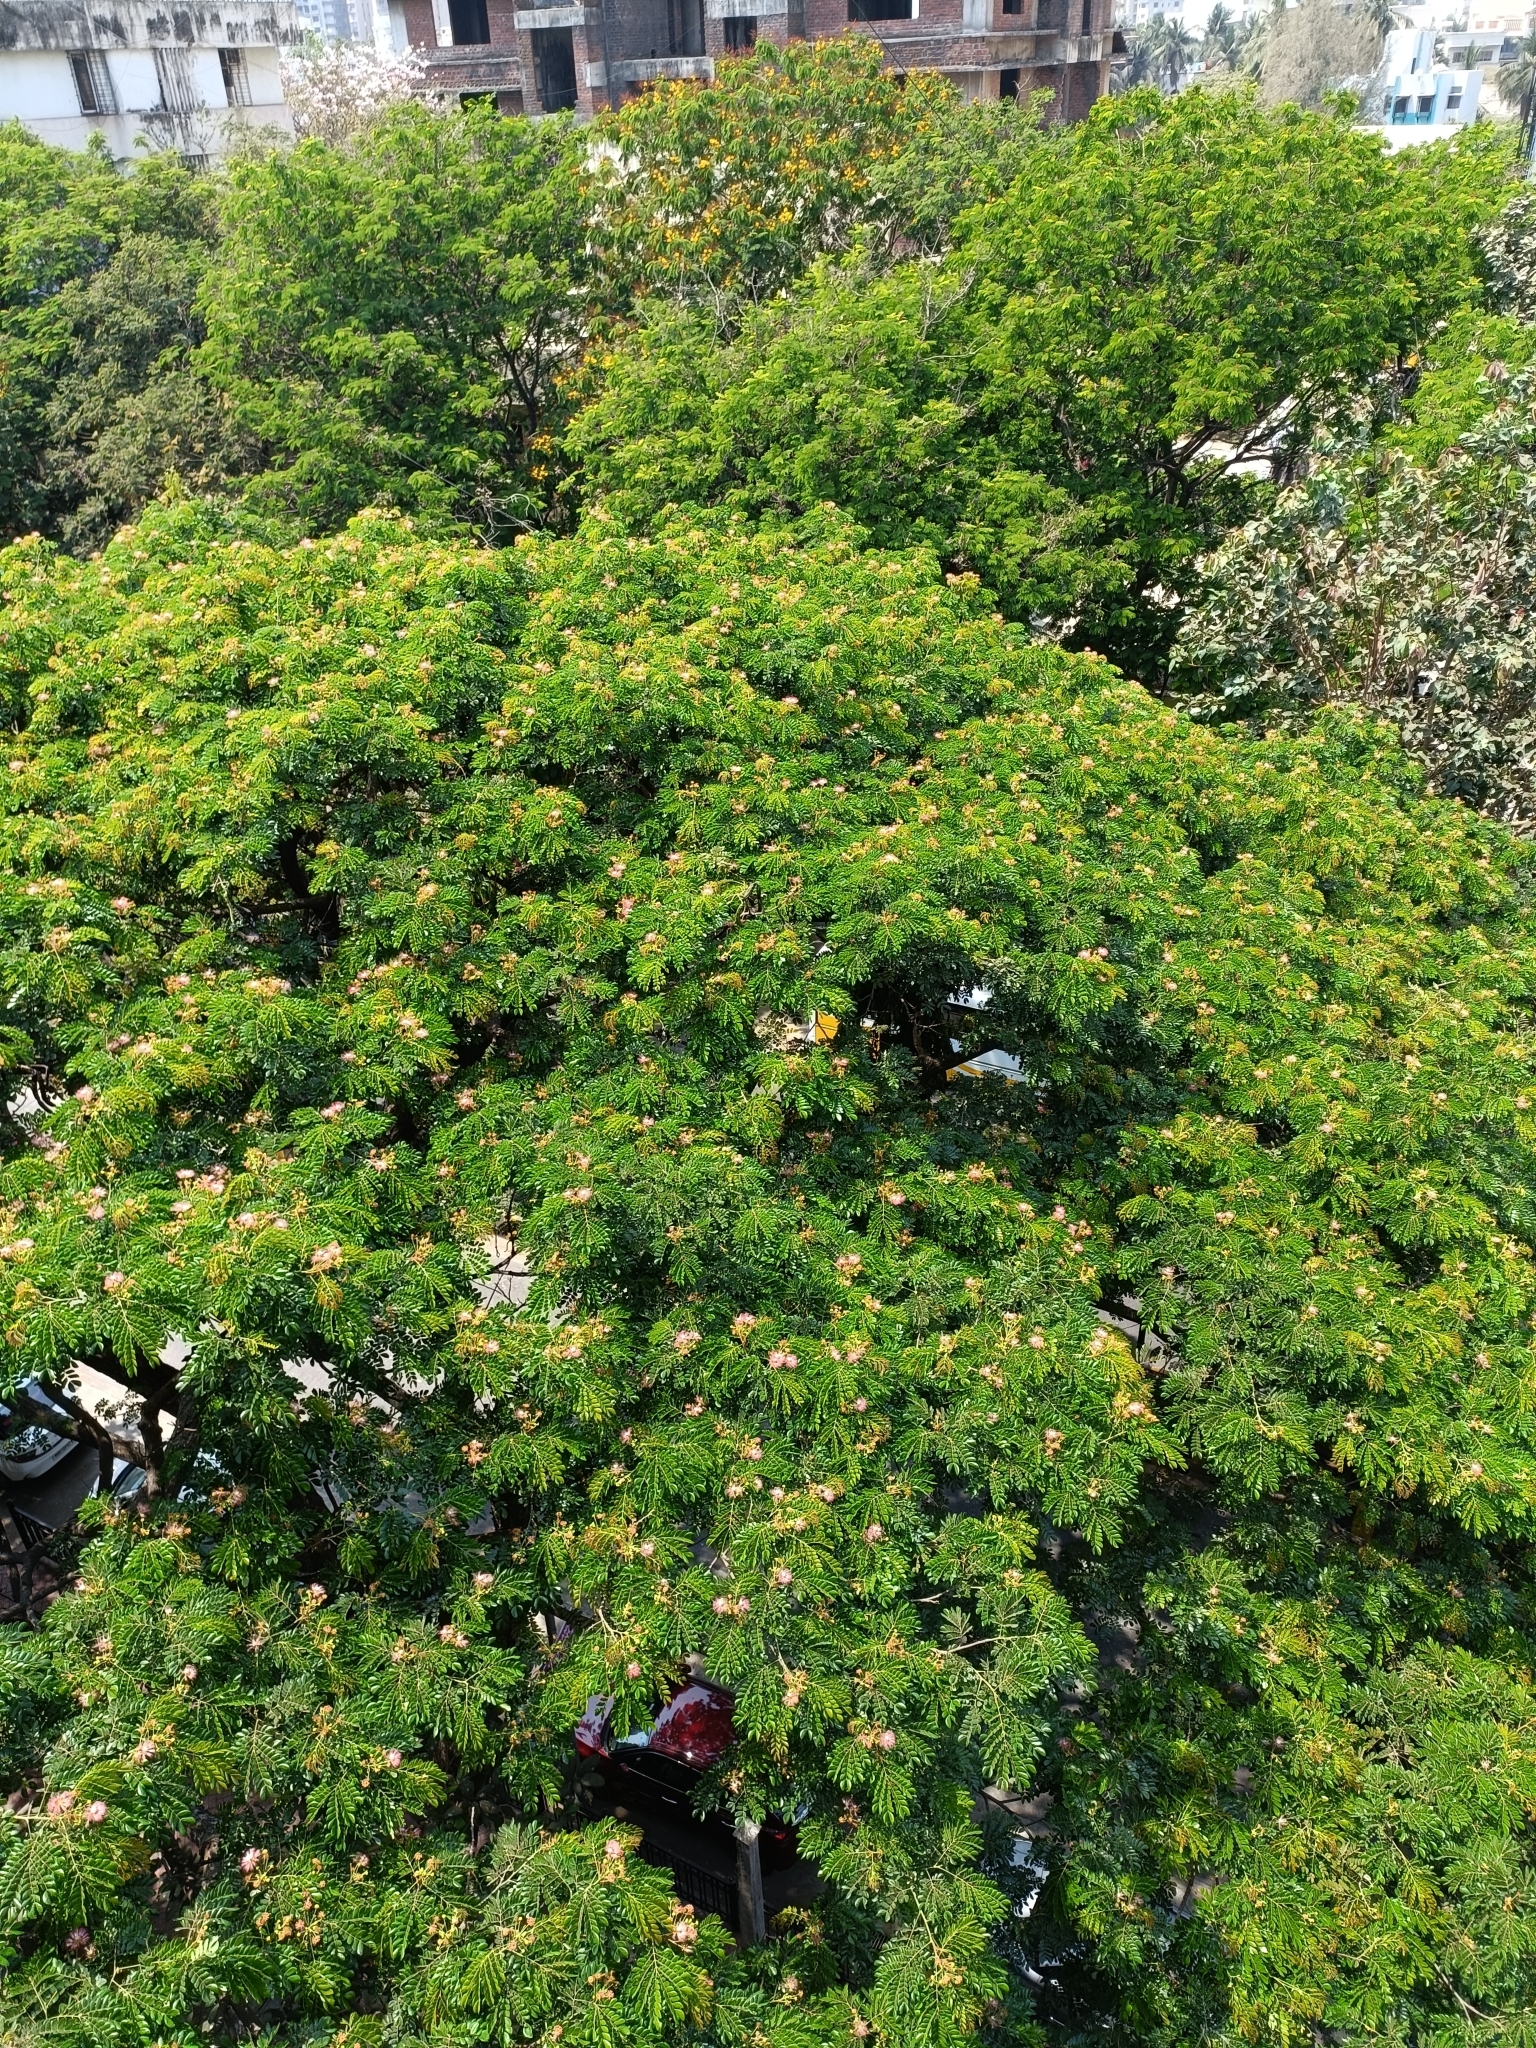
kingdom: Plantae
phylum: Tracheophyta
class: Magnoliopsida
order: Fabales
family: Fabaceae
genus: Samanea
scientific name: Samanea saman
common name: Raintree
